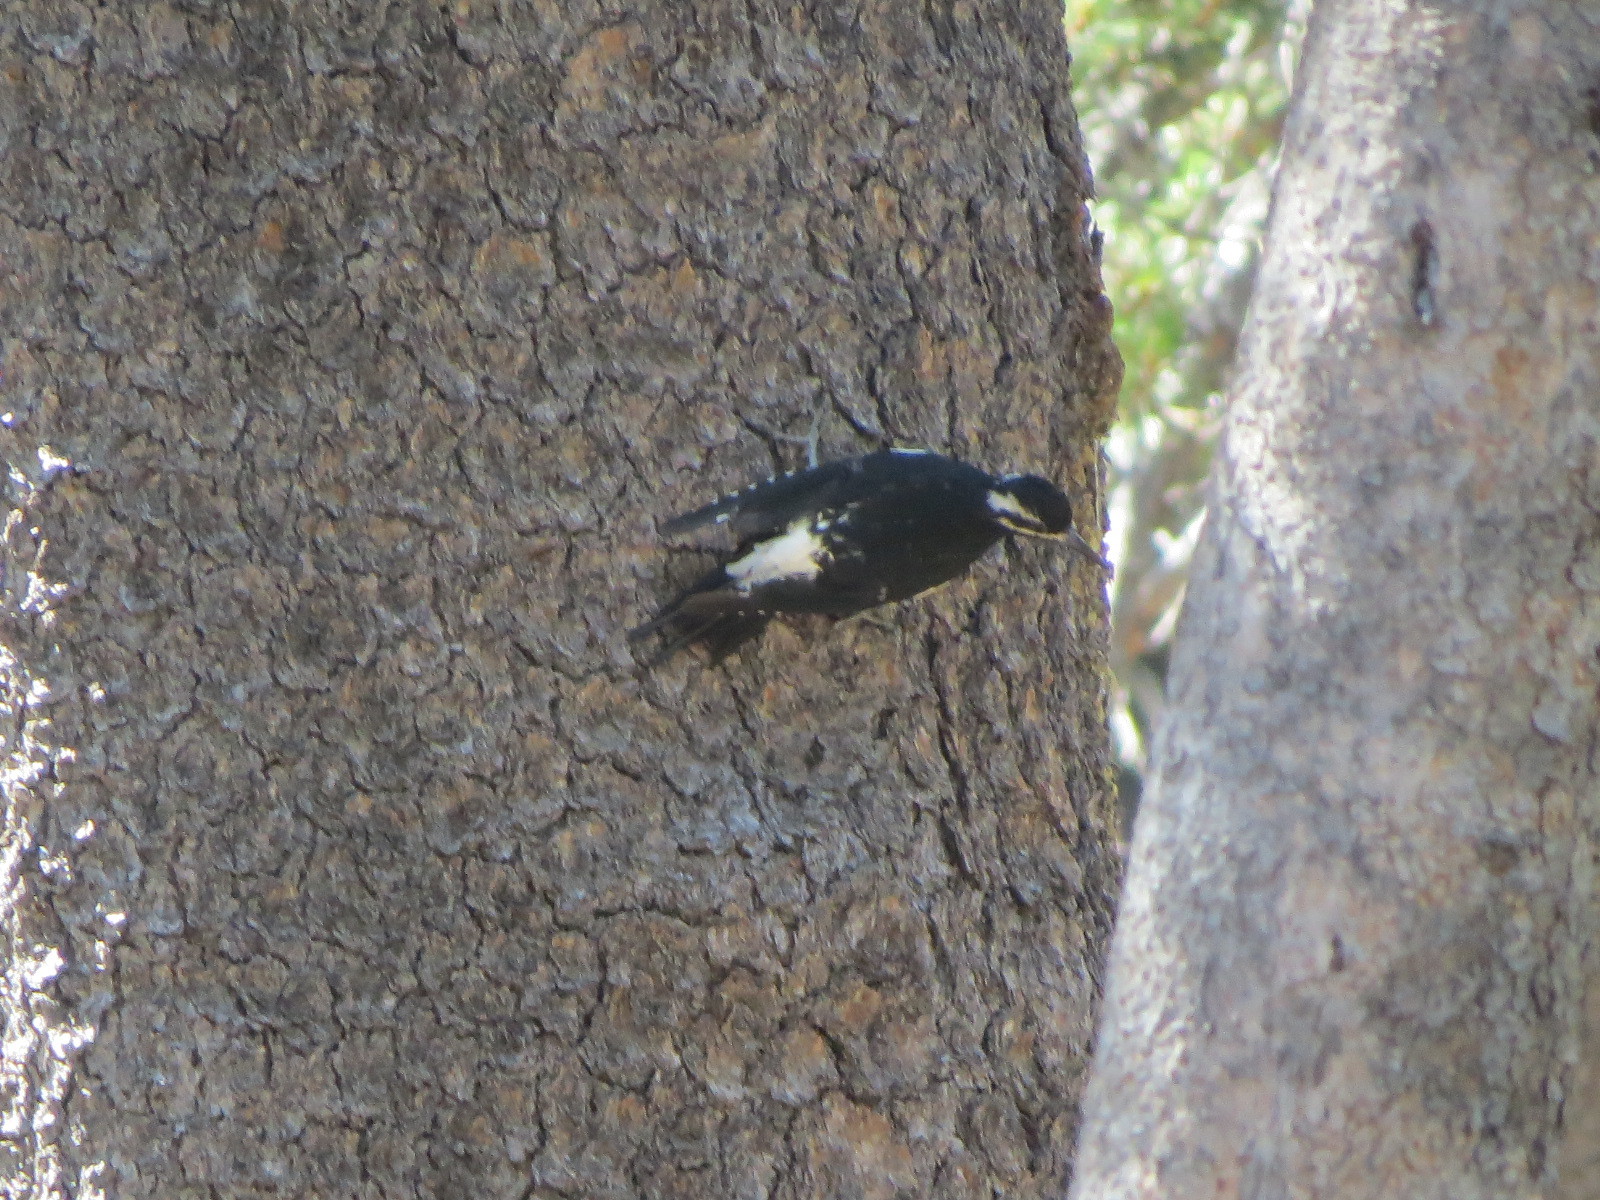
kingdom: Animalia
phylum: Chordata
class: Aves
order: Piciformes
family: Picidae
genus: Sphyrapicus
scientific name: Sphyrapicus thyroideus
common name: Williamson's sapsucker
